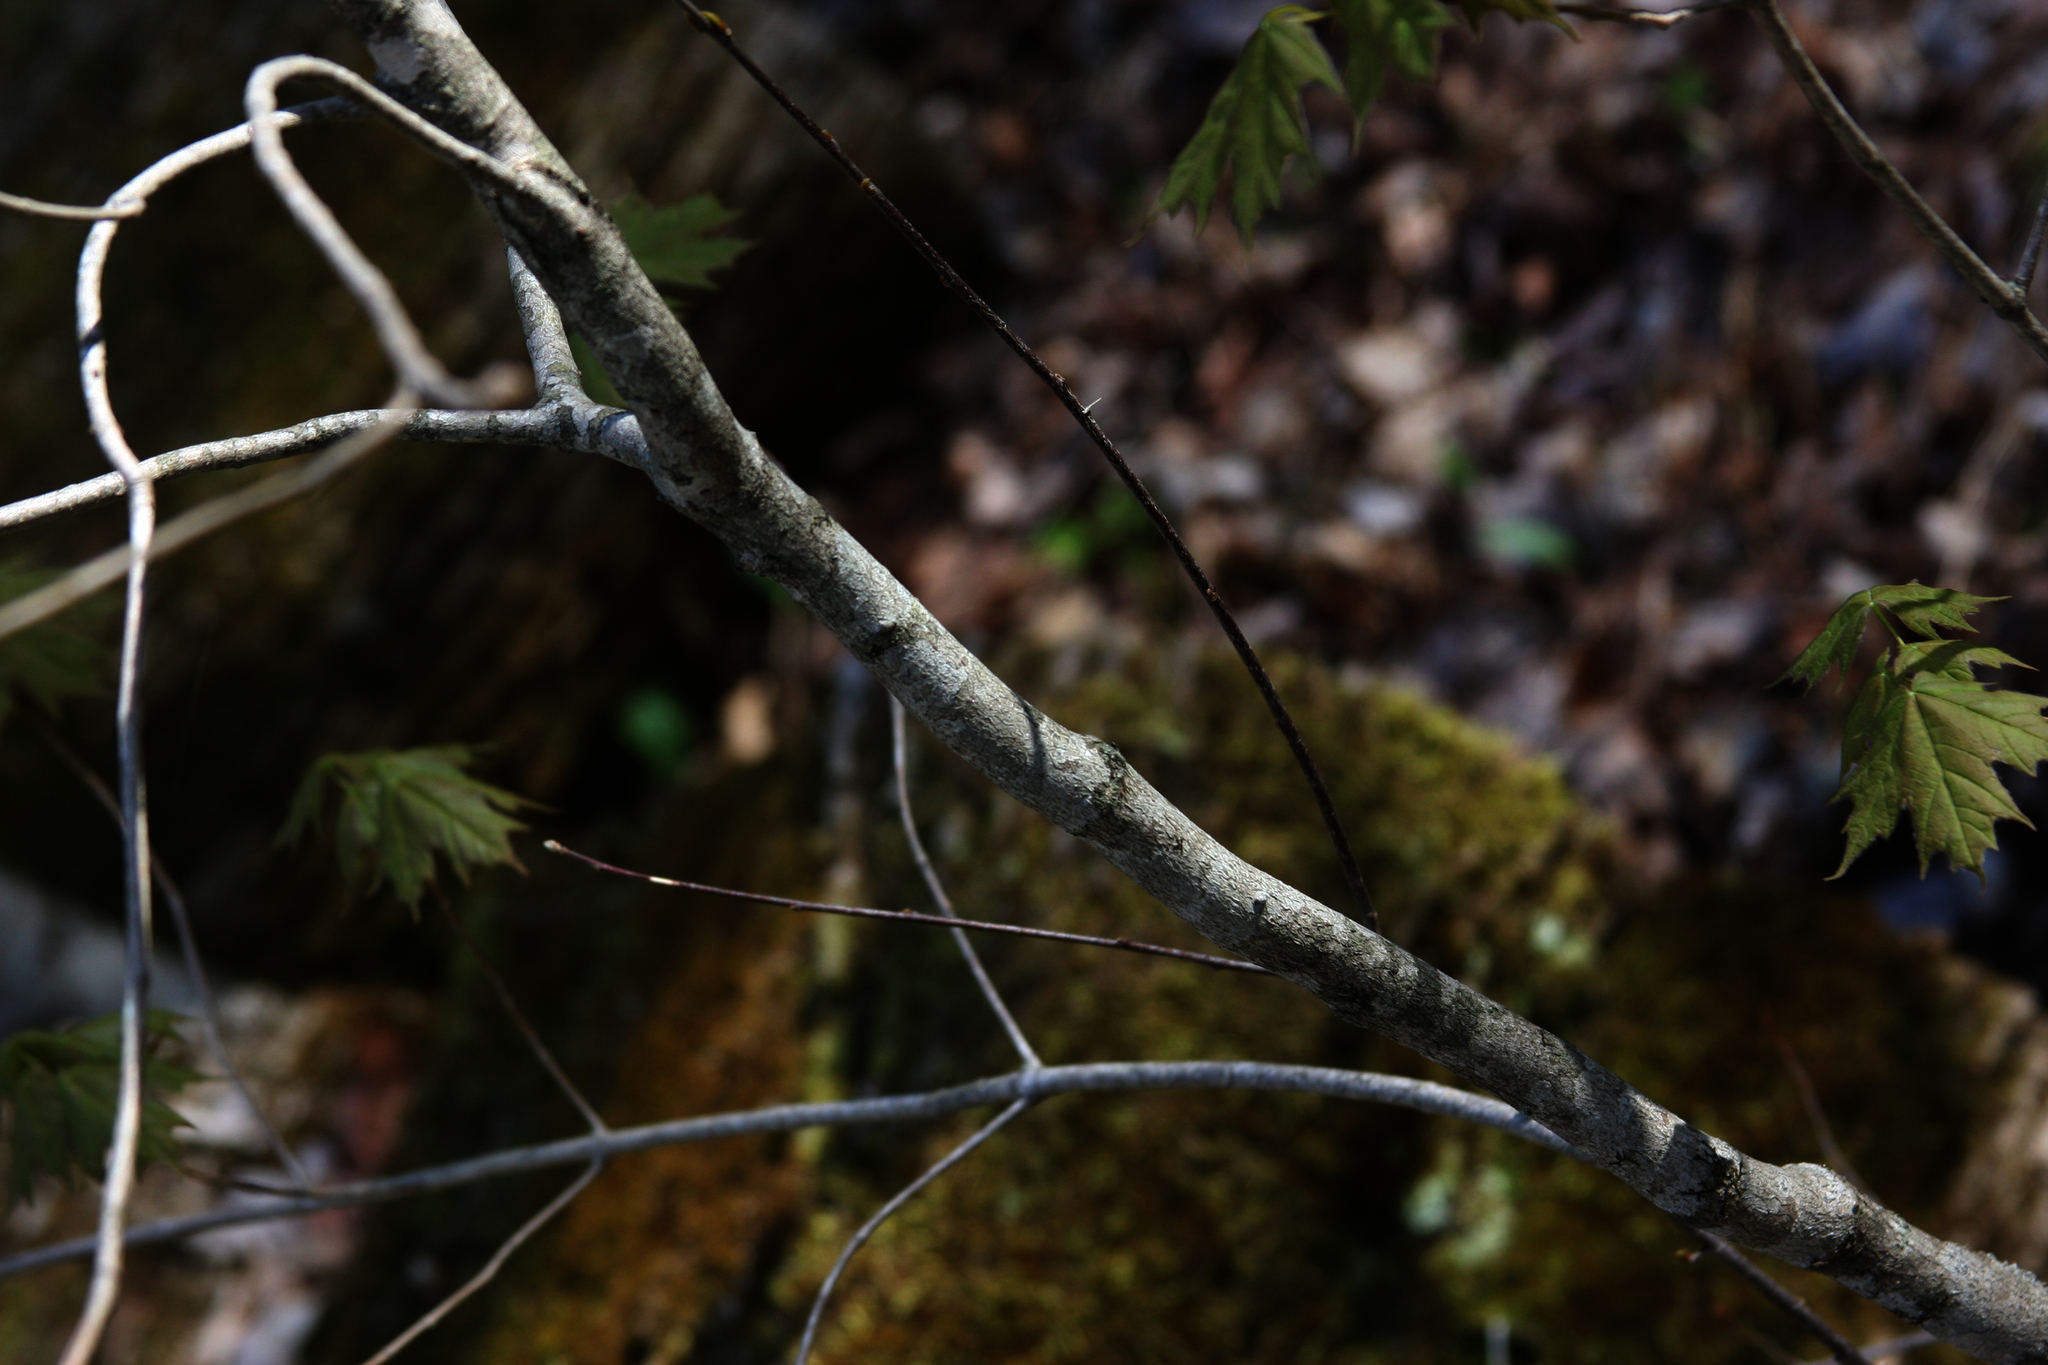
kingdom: Plantae
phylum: Tracheophyta
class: Magnoliopsida
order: Sapindales
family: Sapindaceae
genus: Acer
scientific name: Acer saccharum
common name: Sugar maple
